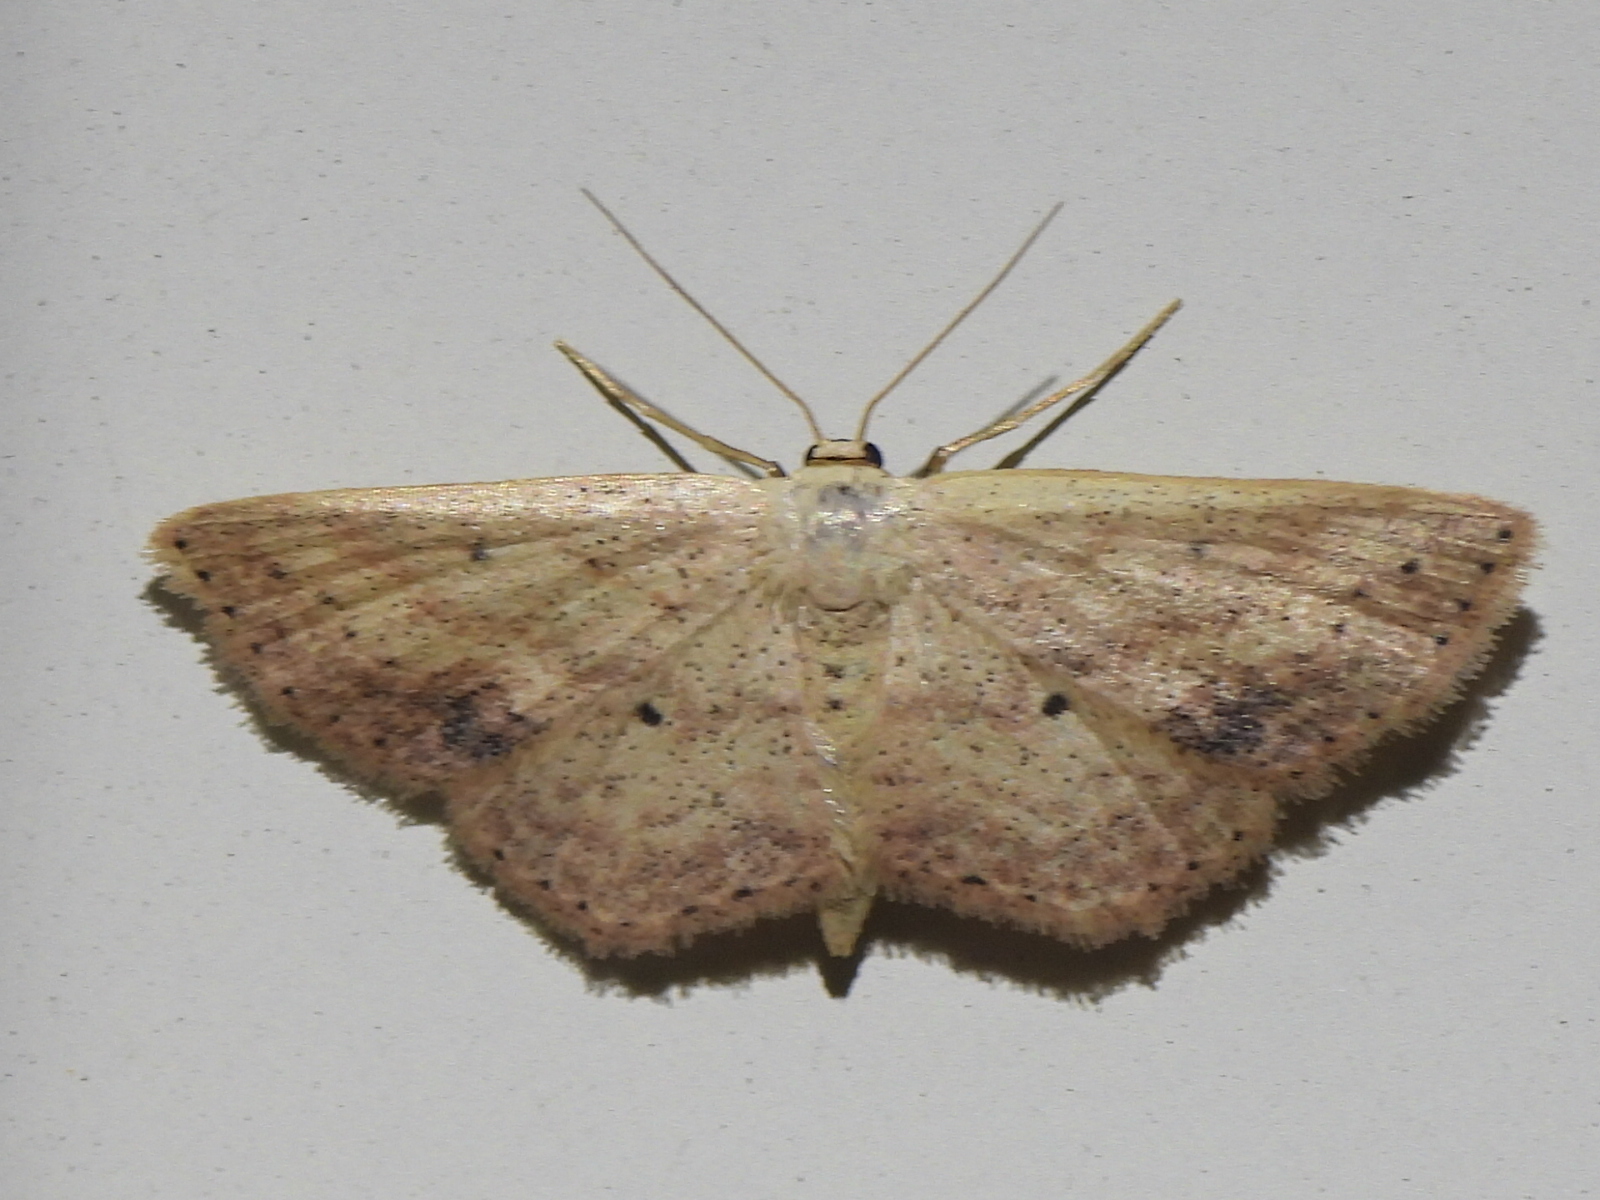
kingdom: Animalia
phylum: Arthropoda
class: Insecta
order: Lepidoptera
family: Geometridae
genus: Scopula
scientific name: Scopula aemulata
